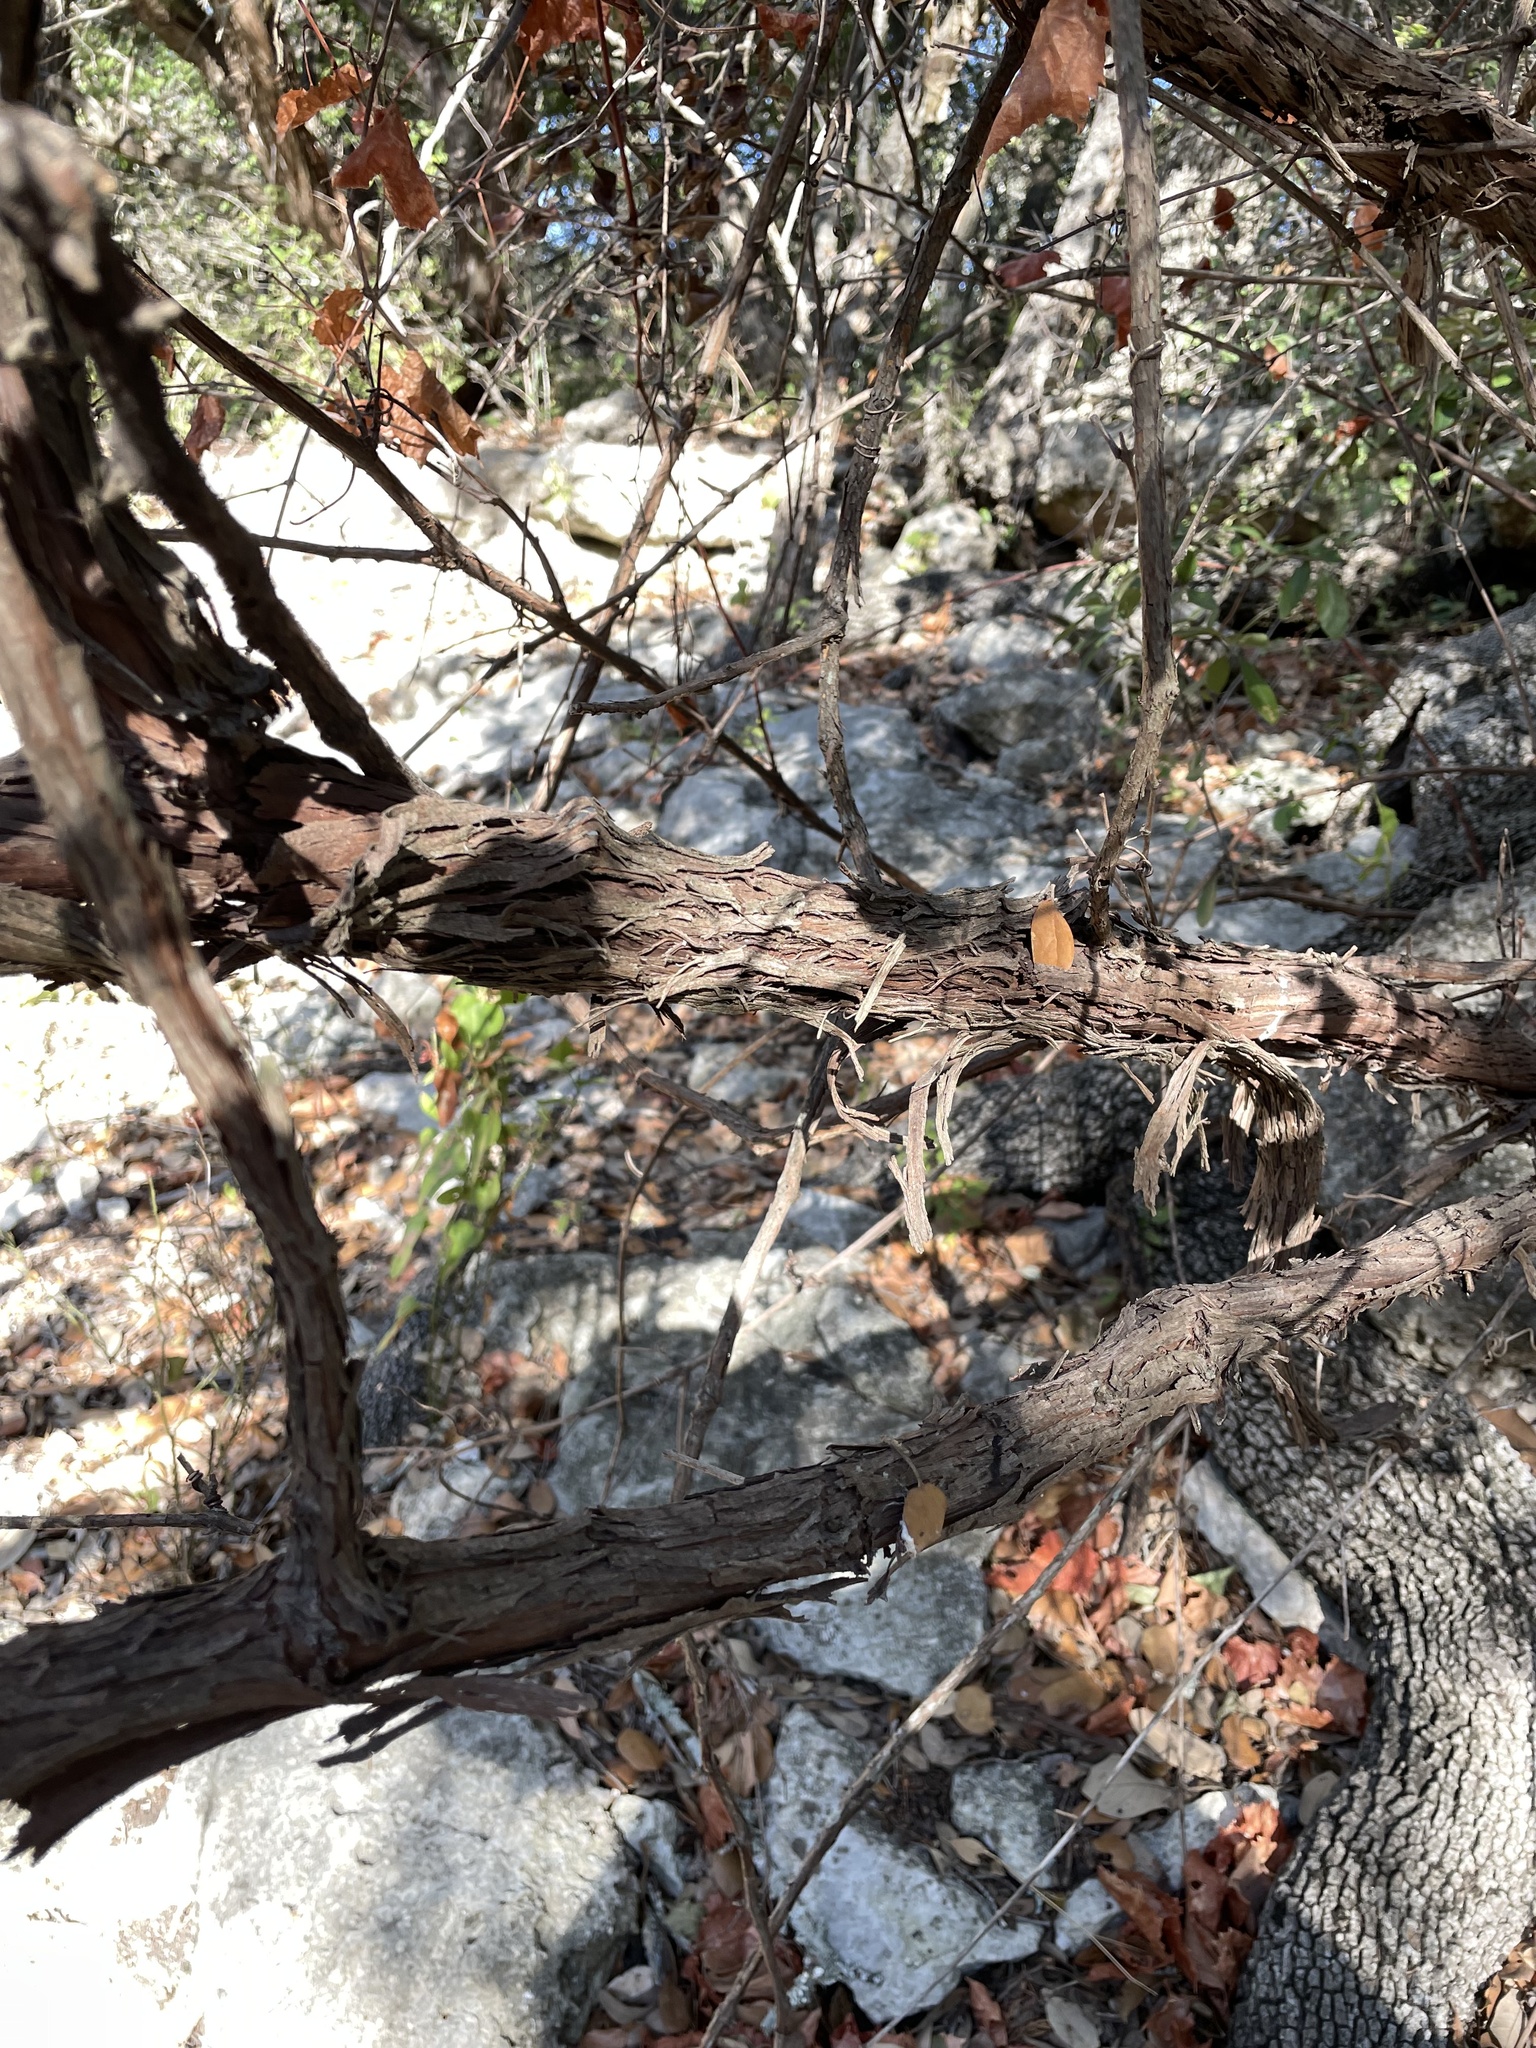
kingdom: Plantae
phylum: Tracheophyta
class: Magnoliopsida
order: Vitales
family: Vitaceae
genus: Vitis
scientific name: Vitis monticola
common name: Mountain grape
